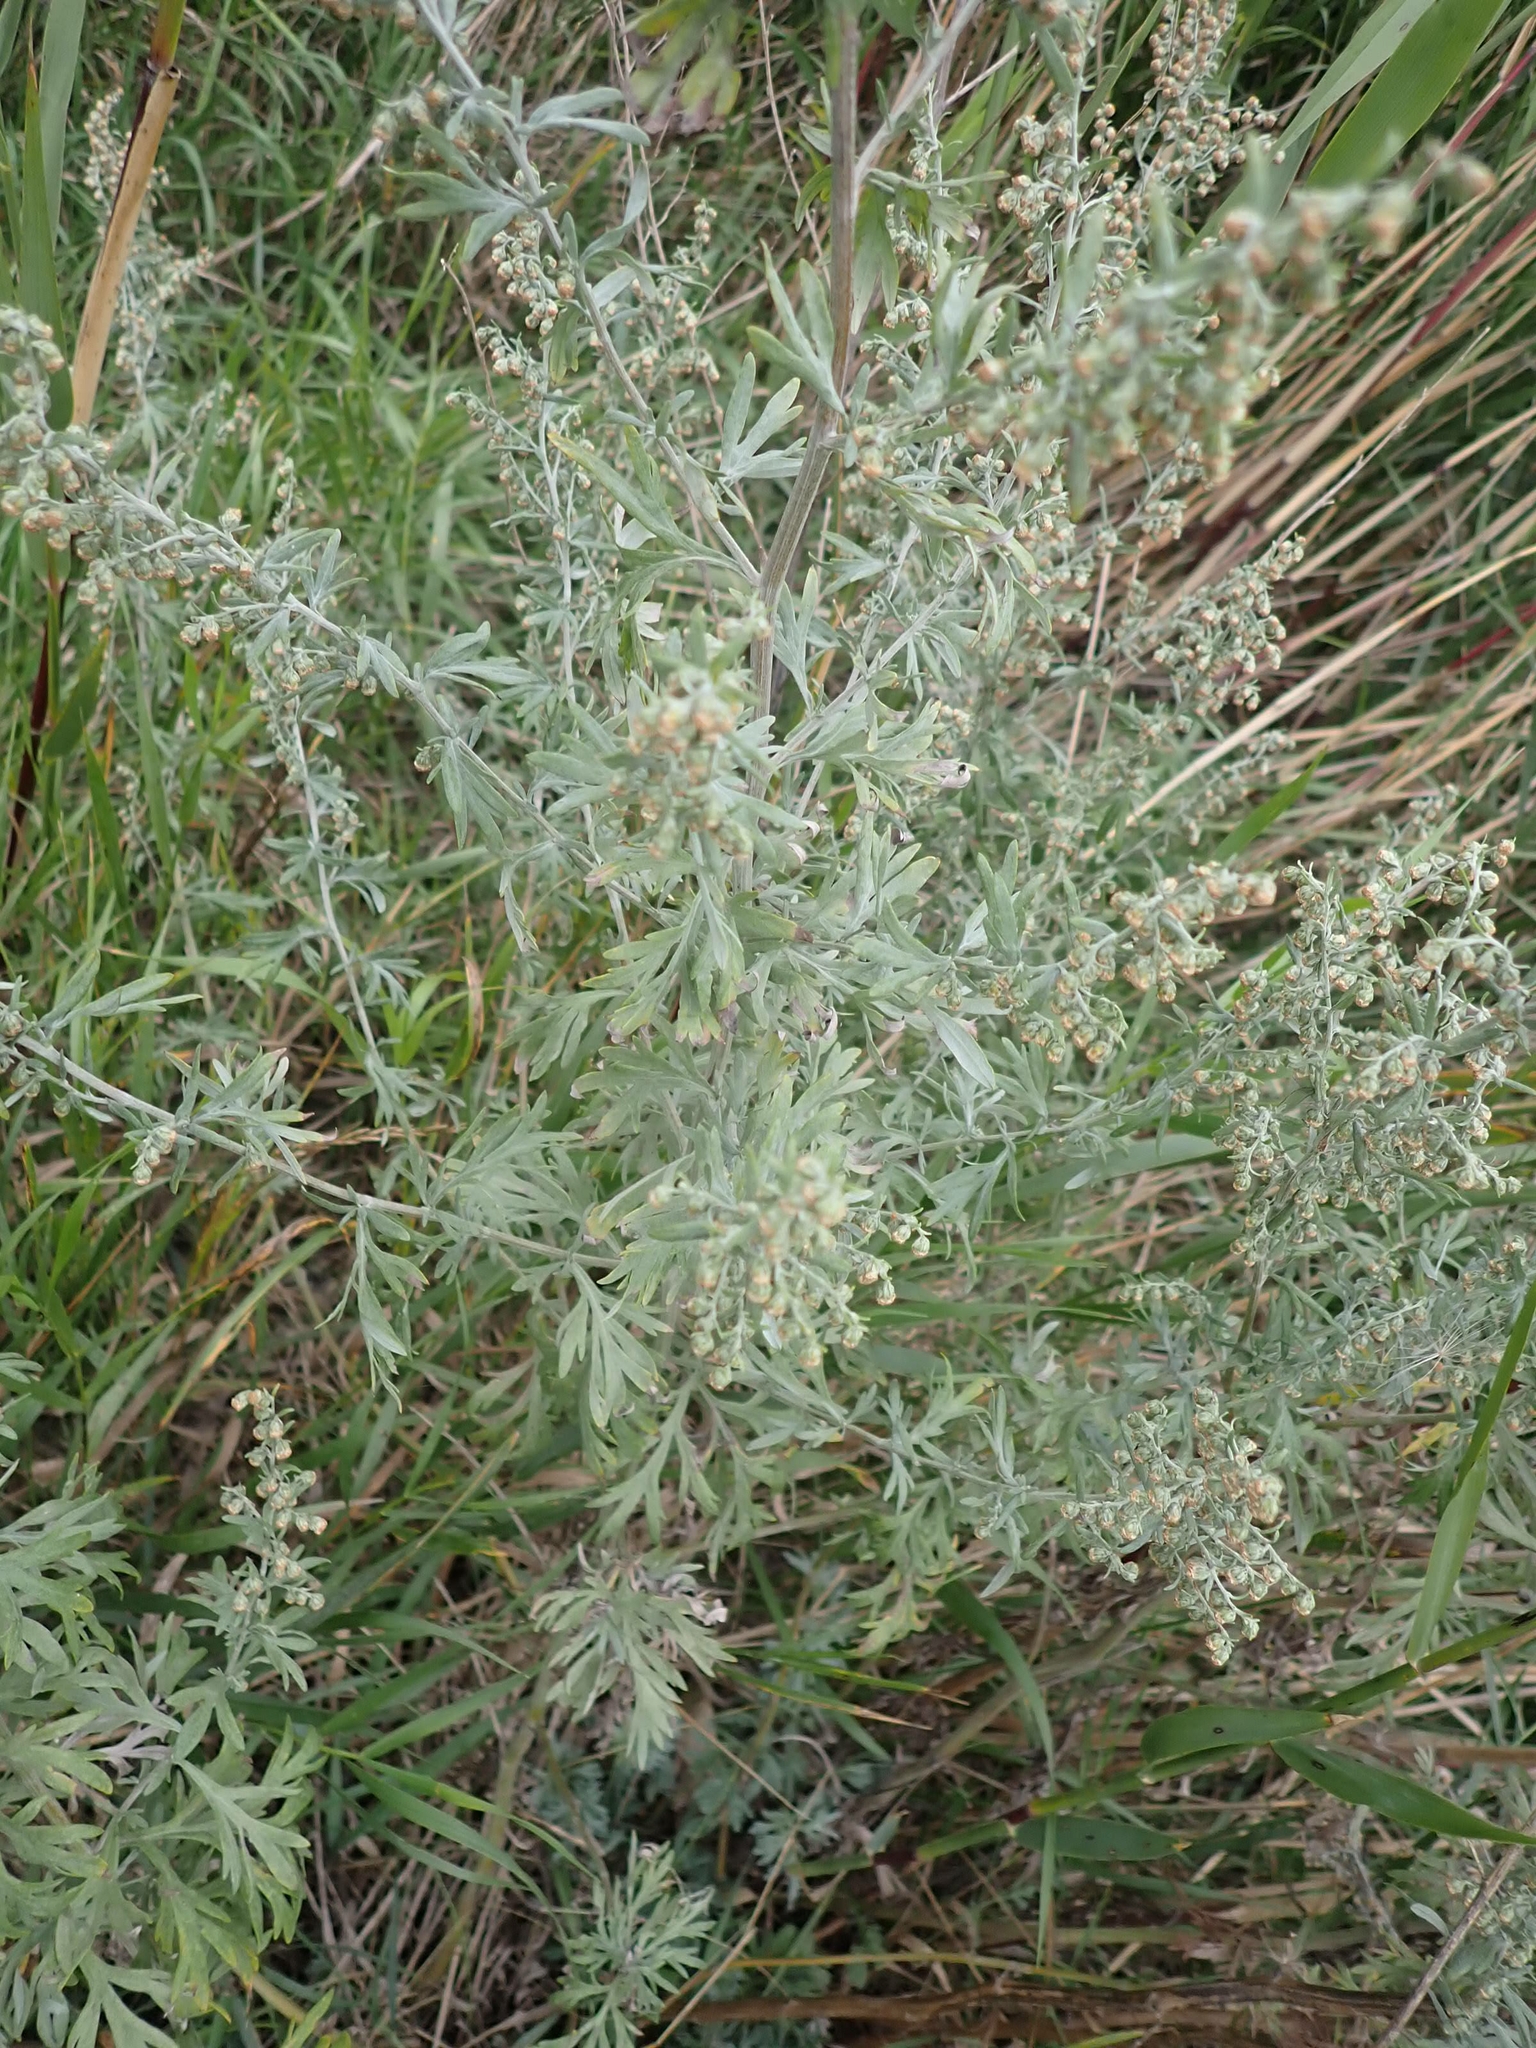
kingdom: Plantae
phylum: Tracheophyta
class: Magnoliopsida
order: Asterales
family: Asteraceae
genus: Artemisia
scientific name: Artemisia absinthium
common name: Wormwood
